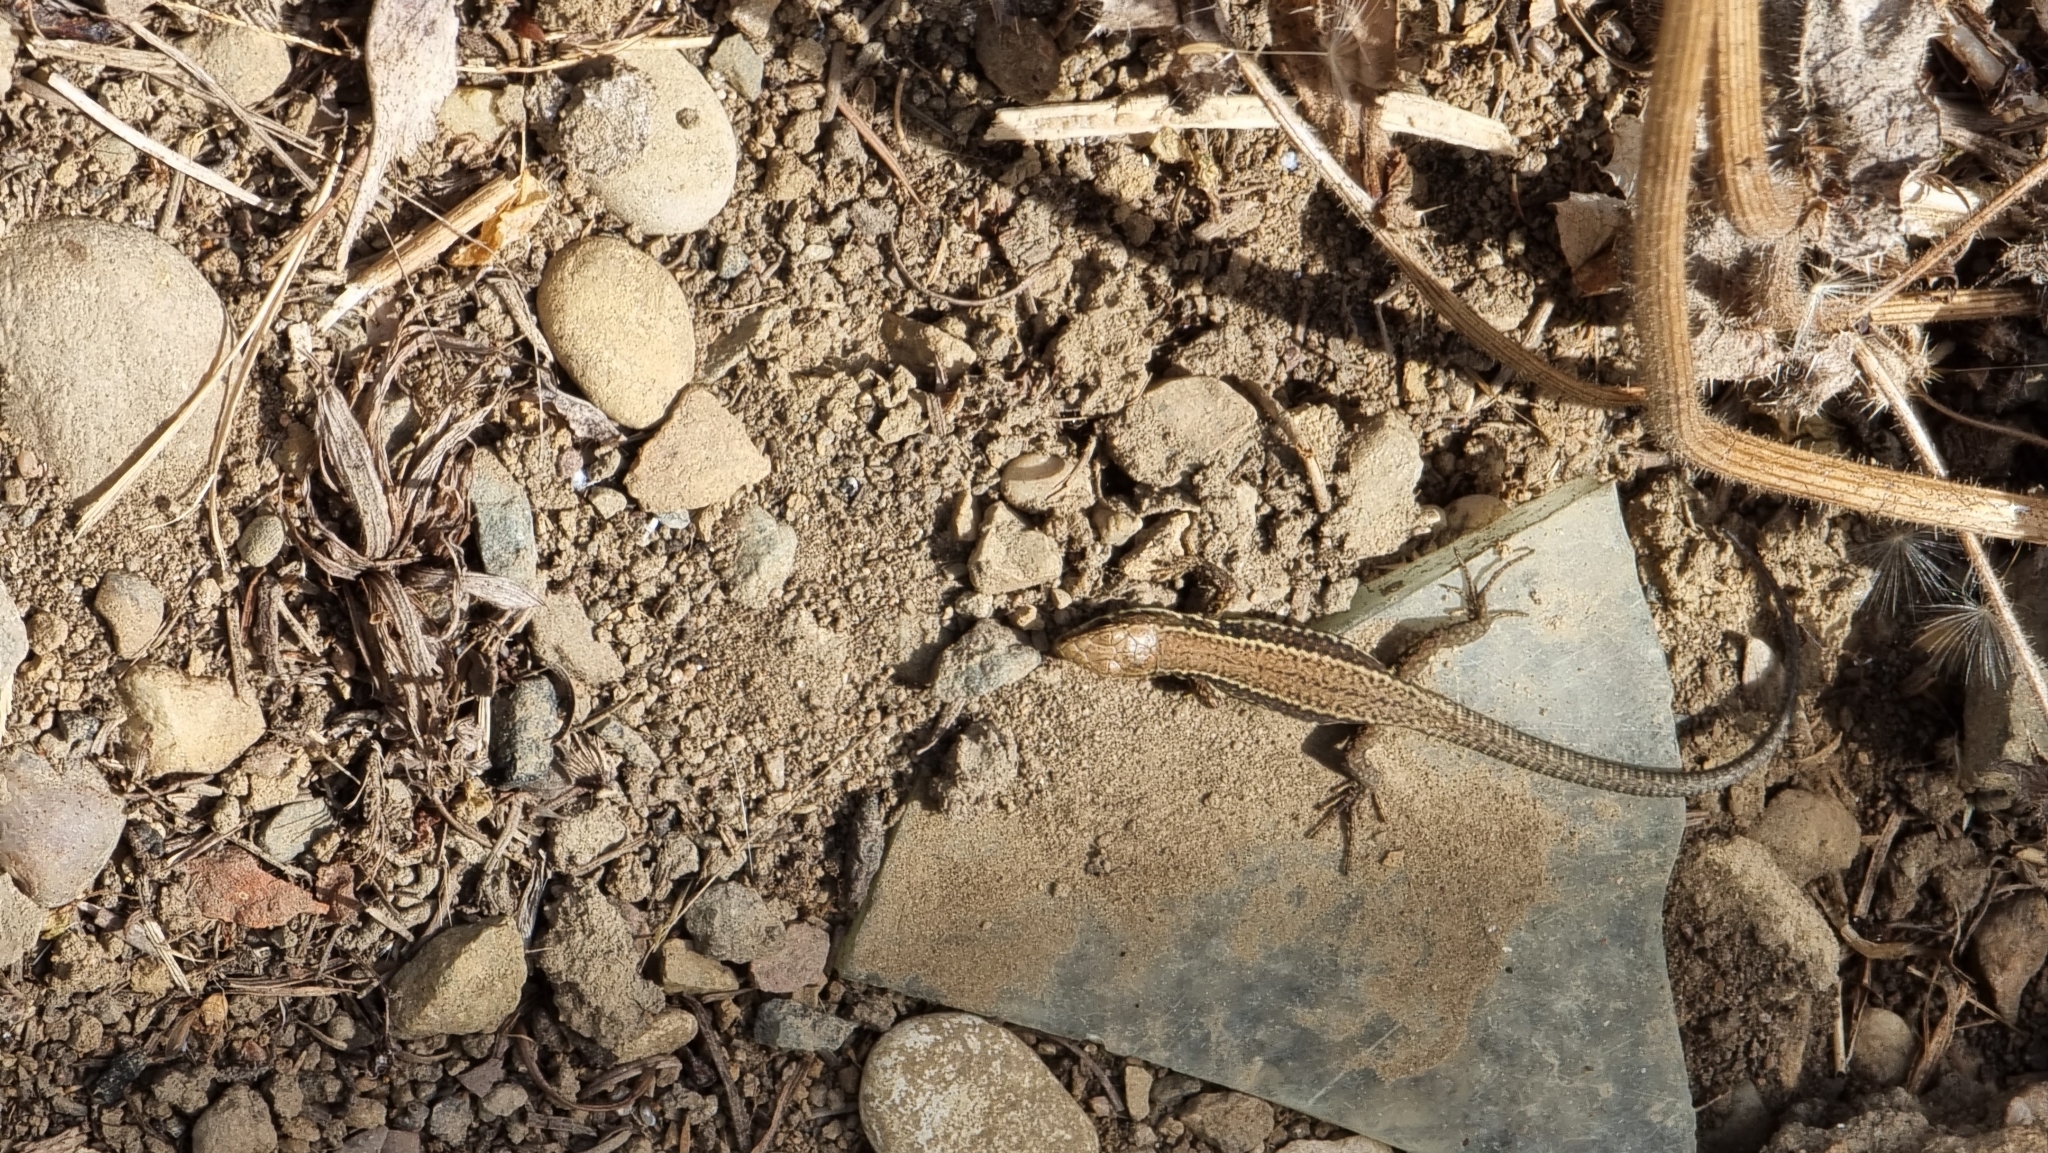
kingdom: Animalia
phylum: Chordata
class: Squamata
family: Lacertidae
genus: Podarcis
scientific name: Podarcis muralis
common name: Common wall lizard
